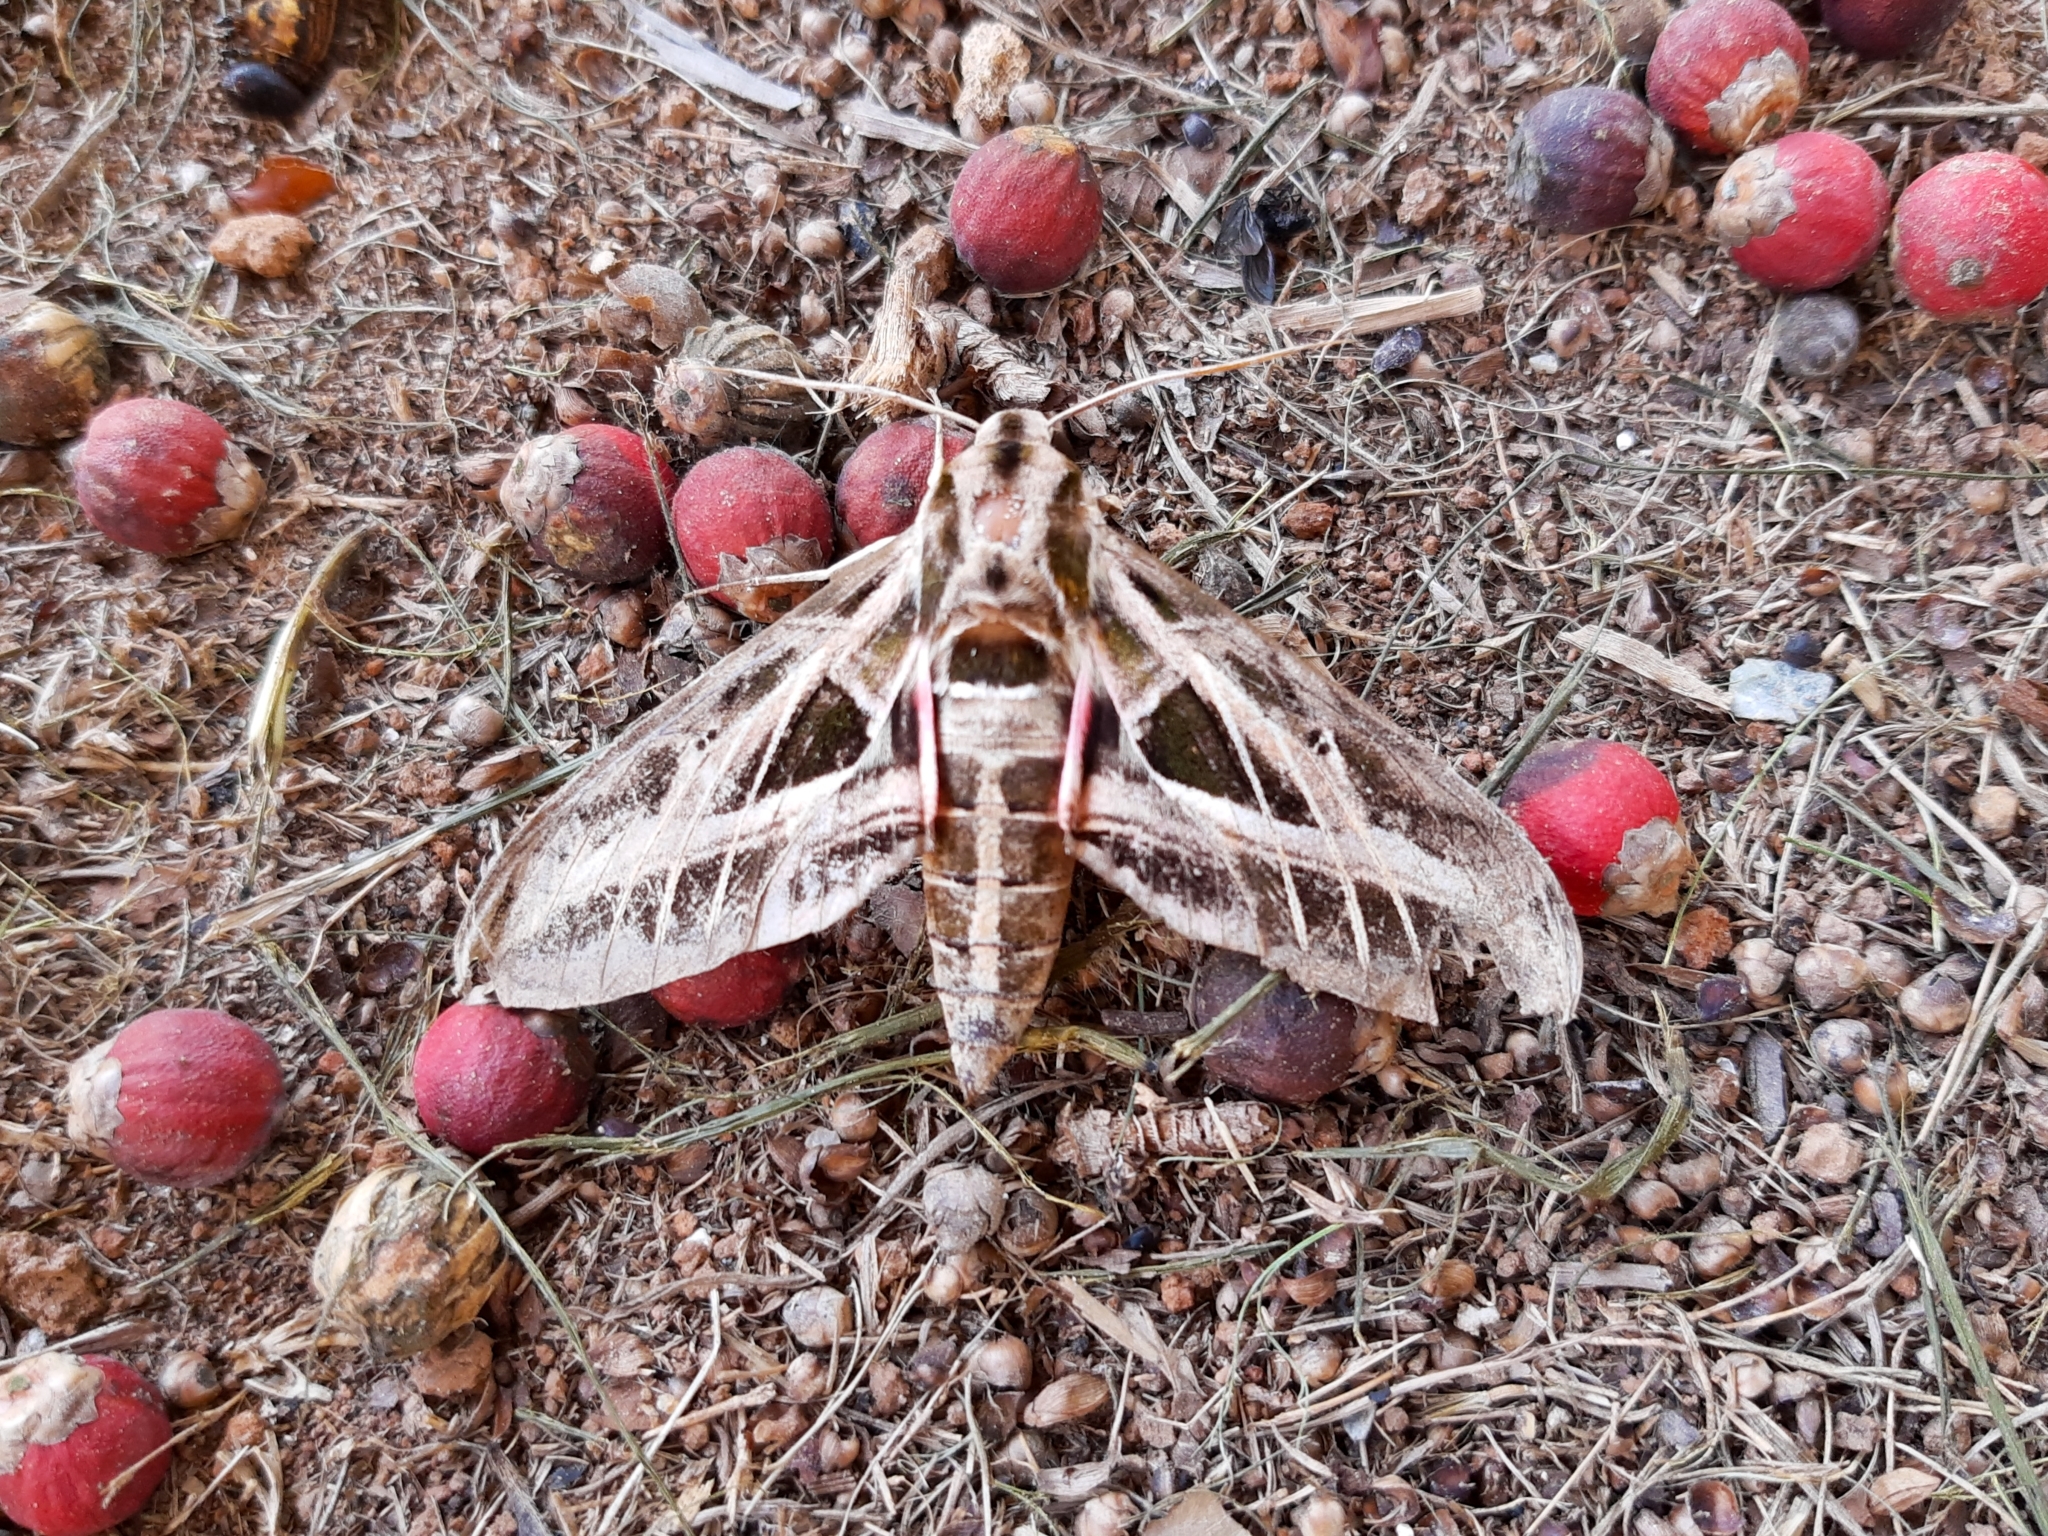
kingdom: Animalia
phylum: Arthropoda
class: Insecta
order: Lepidoptera
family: Sphingidae
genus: Eumorpha
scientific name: Eumorpha vitis
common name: Vine sphinx
